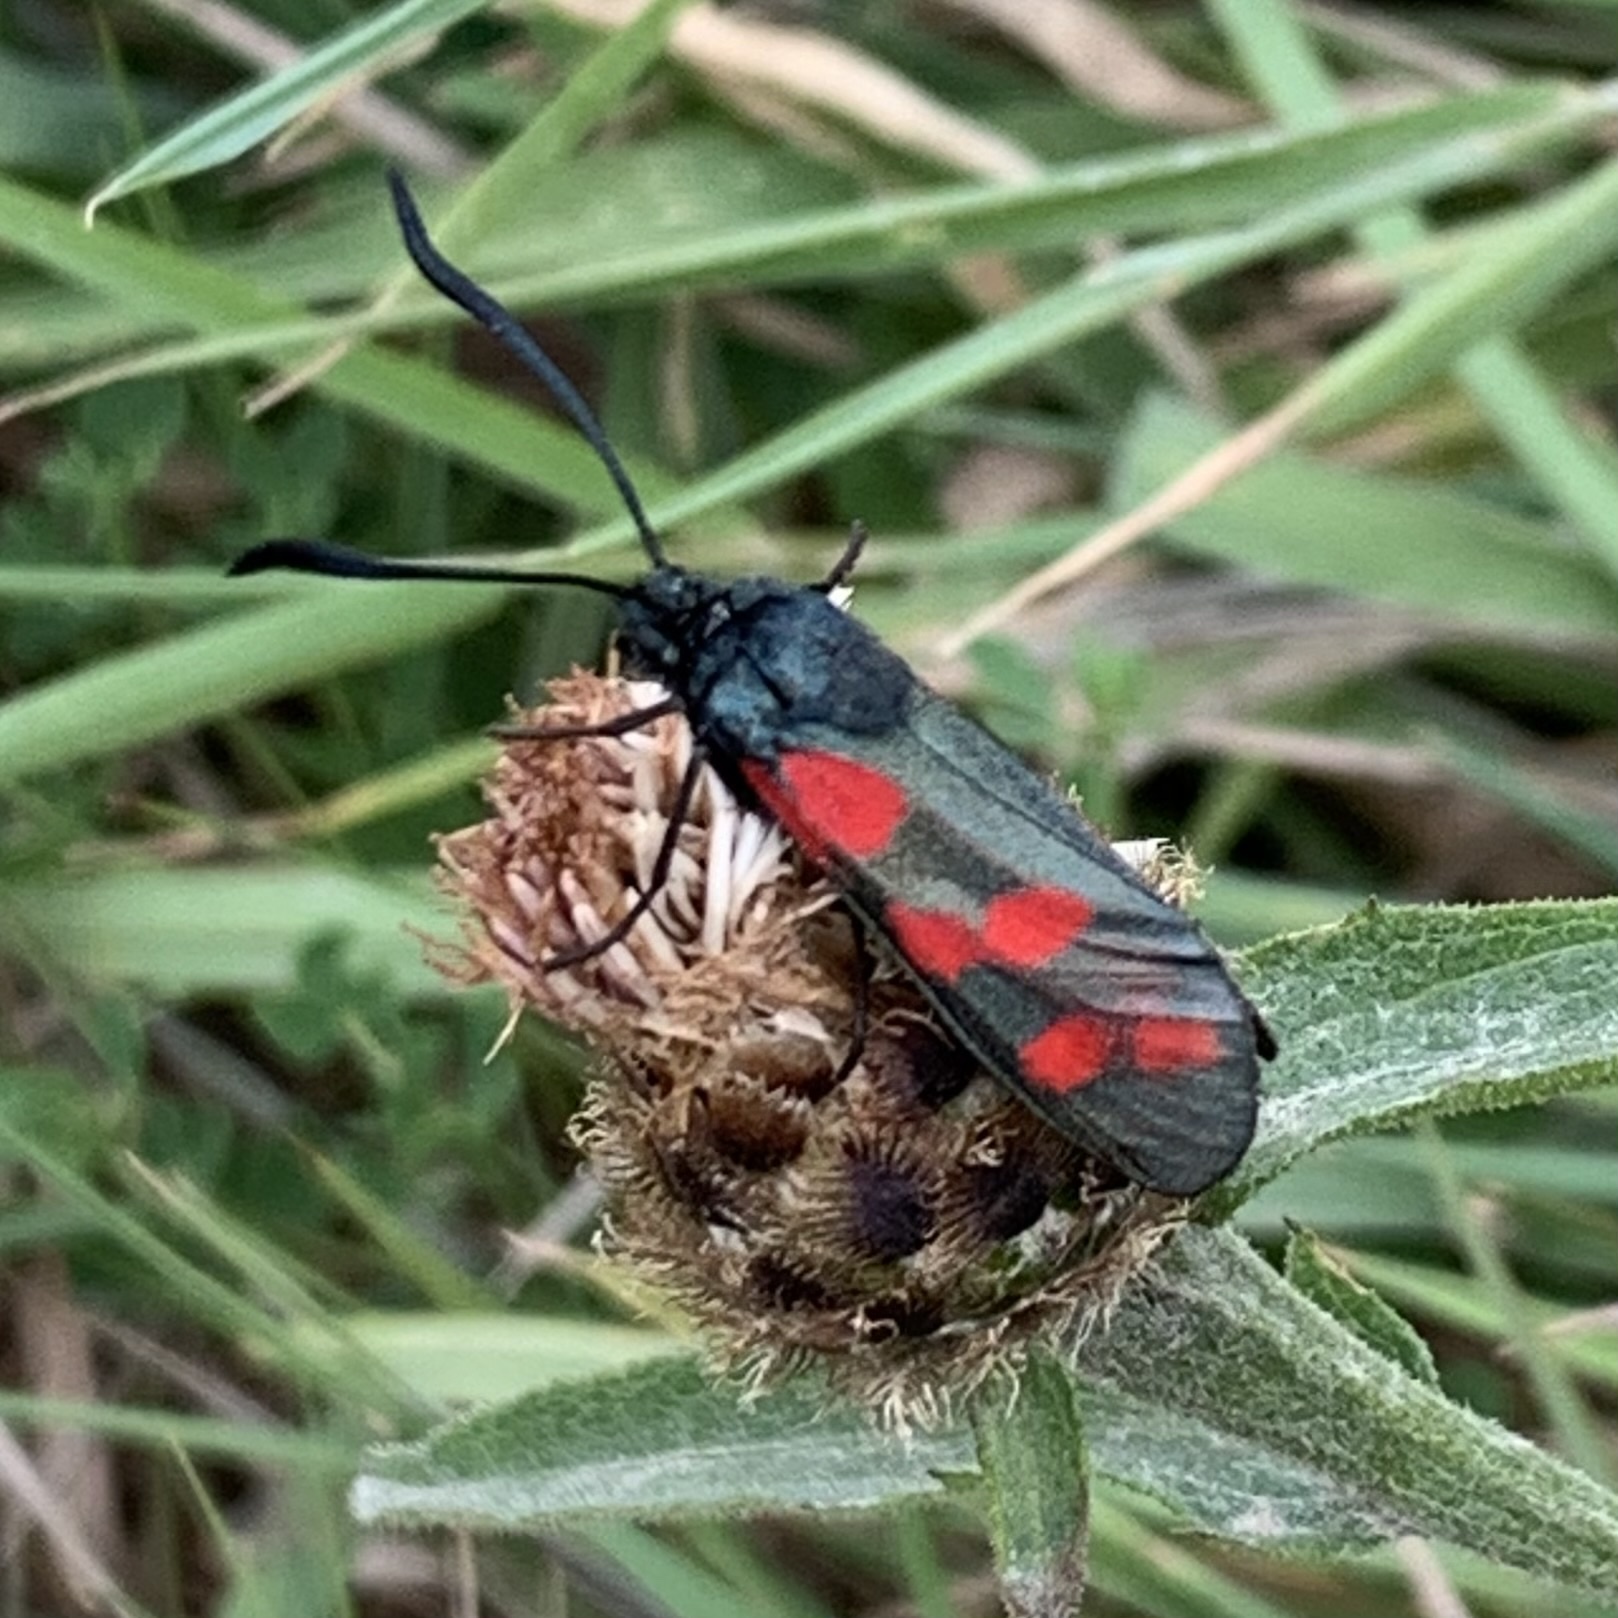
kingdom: Animalia
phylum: Arthropoda
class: Insecta
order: Lepidoptera
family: Zygaenidae
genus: Zygaena
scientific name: Zygaena filipendulae
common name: Six-spot burnet
